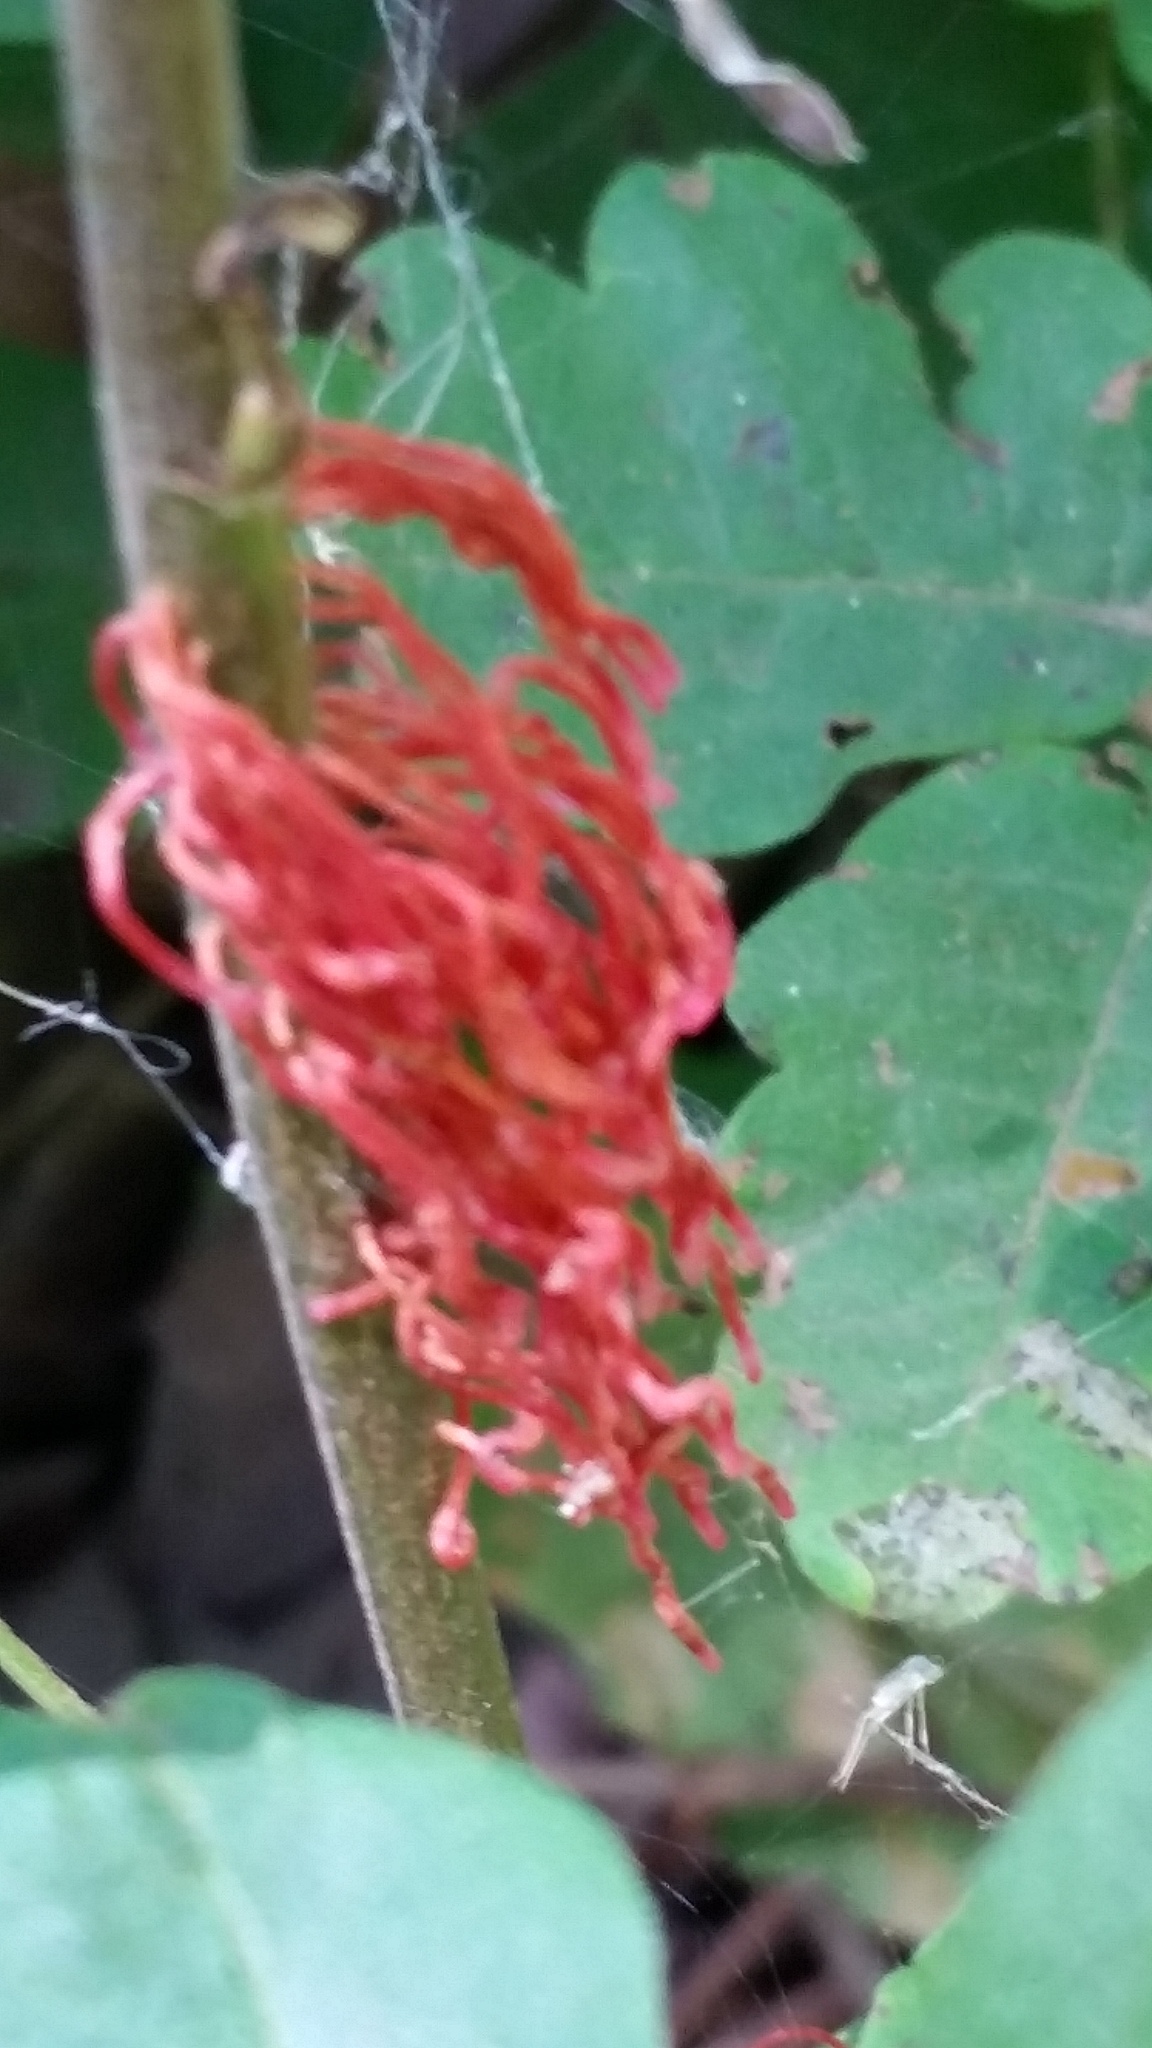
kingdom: Plantae
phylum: Tracheophyta
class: Magnoliopsida
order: Sapindales
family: Anacardiaceae
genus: Toxicodendron
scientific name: Toxicodendron diversilobum
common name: Pacific poison-oak
